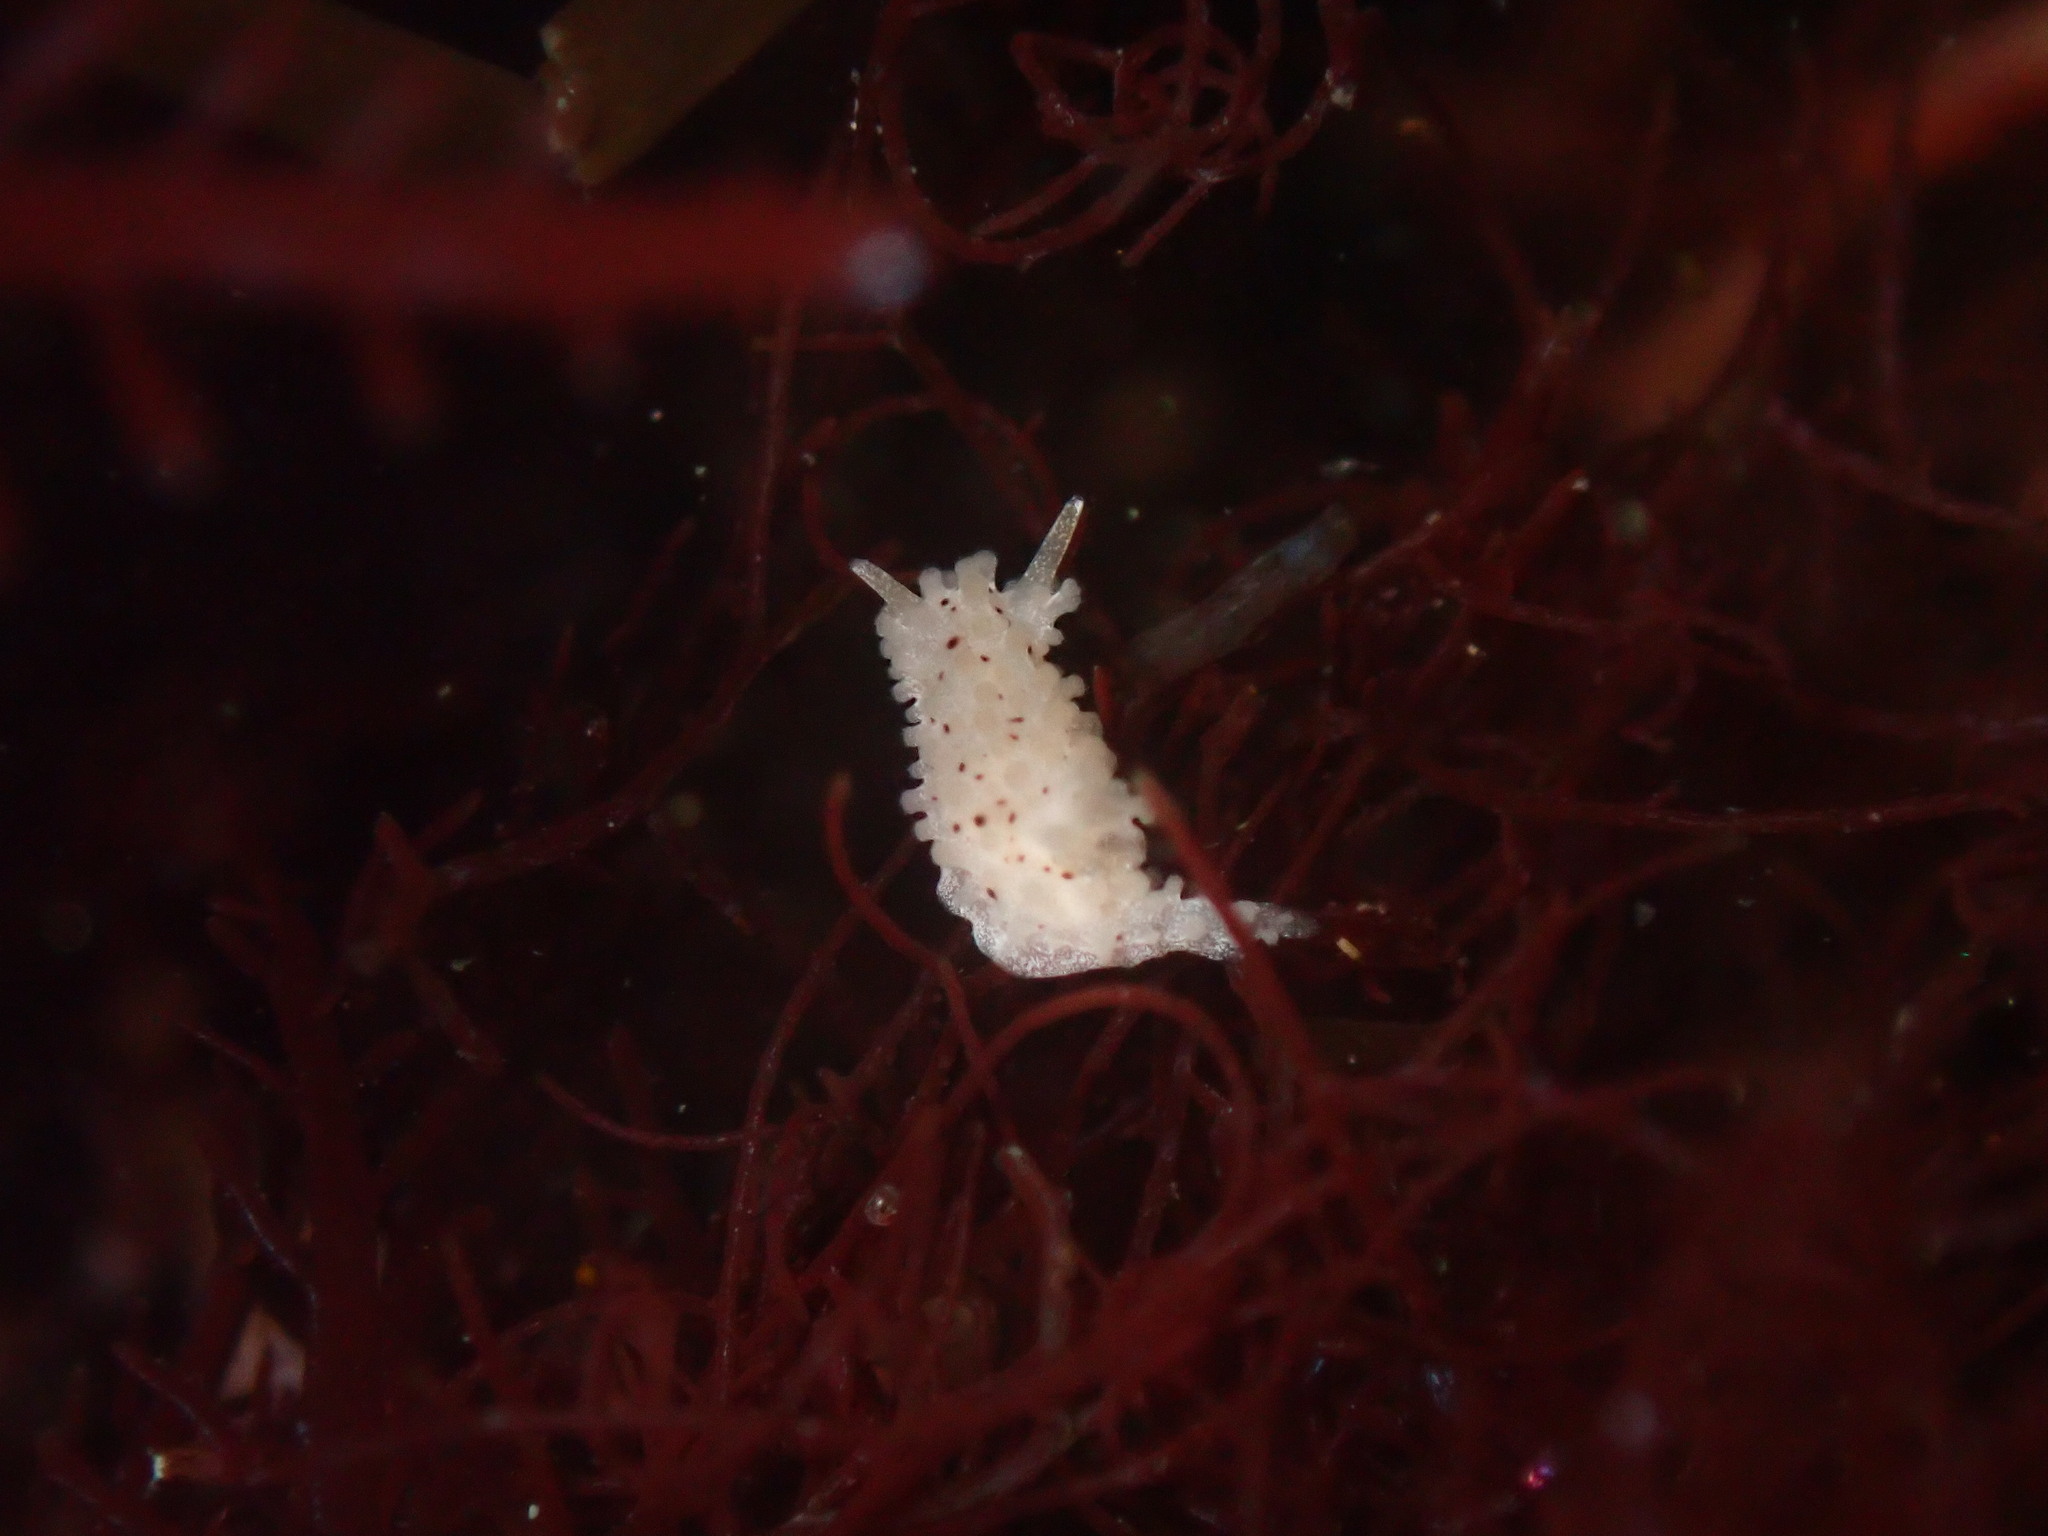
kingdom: Animalia
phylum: Mollusca
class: Gastropoda
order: Nudibranchia
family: Aegiridae
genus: Aegires
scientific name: Aegires albopunctatus
